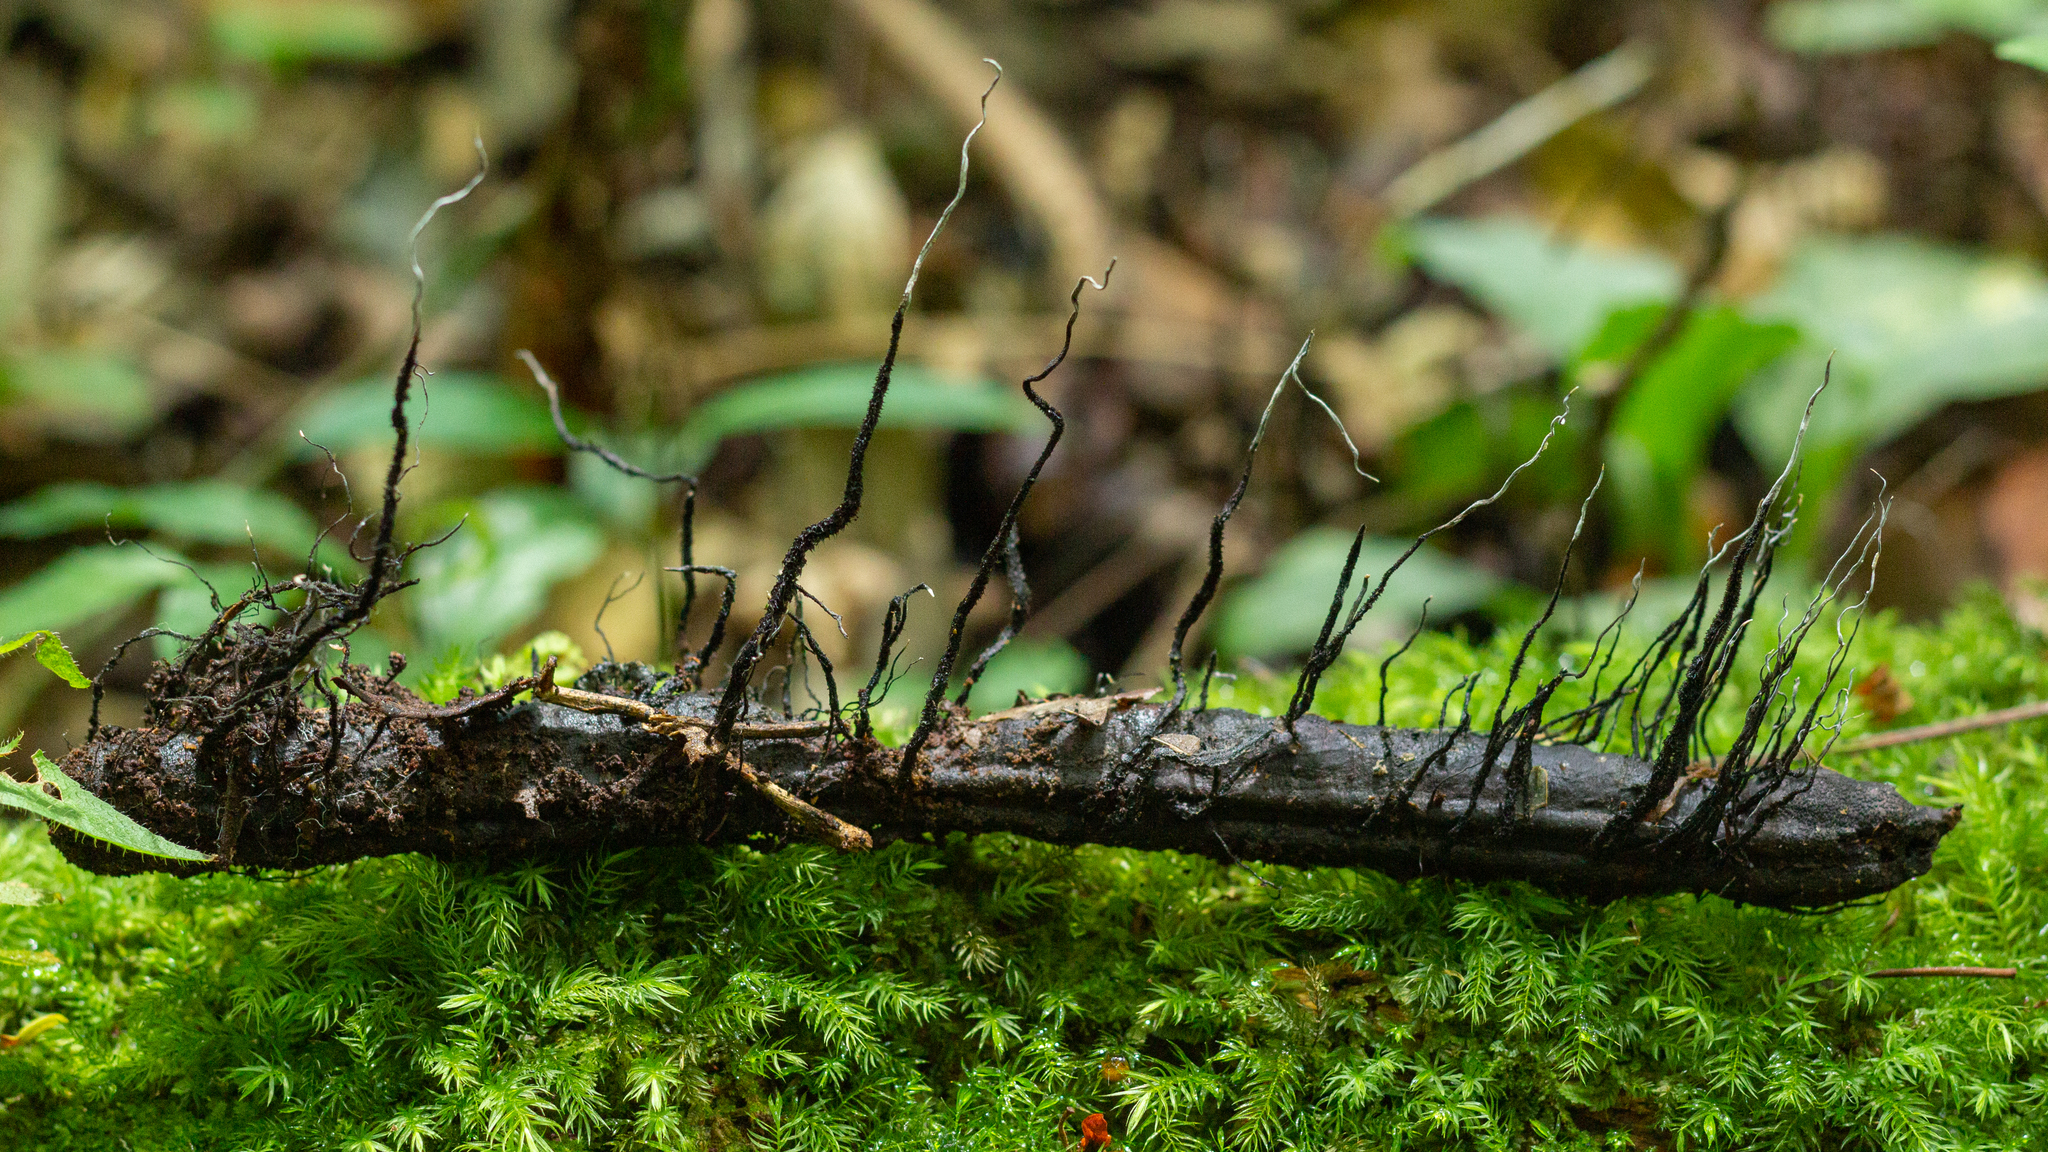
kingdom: Fungi
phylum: Ascomycota
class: Sordariomycetes
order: Xylariales
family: Xylariaceae
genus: Xylosphaera
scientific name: Xylosphaera ianthinovelutina
